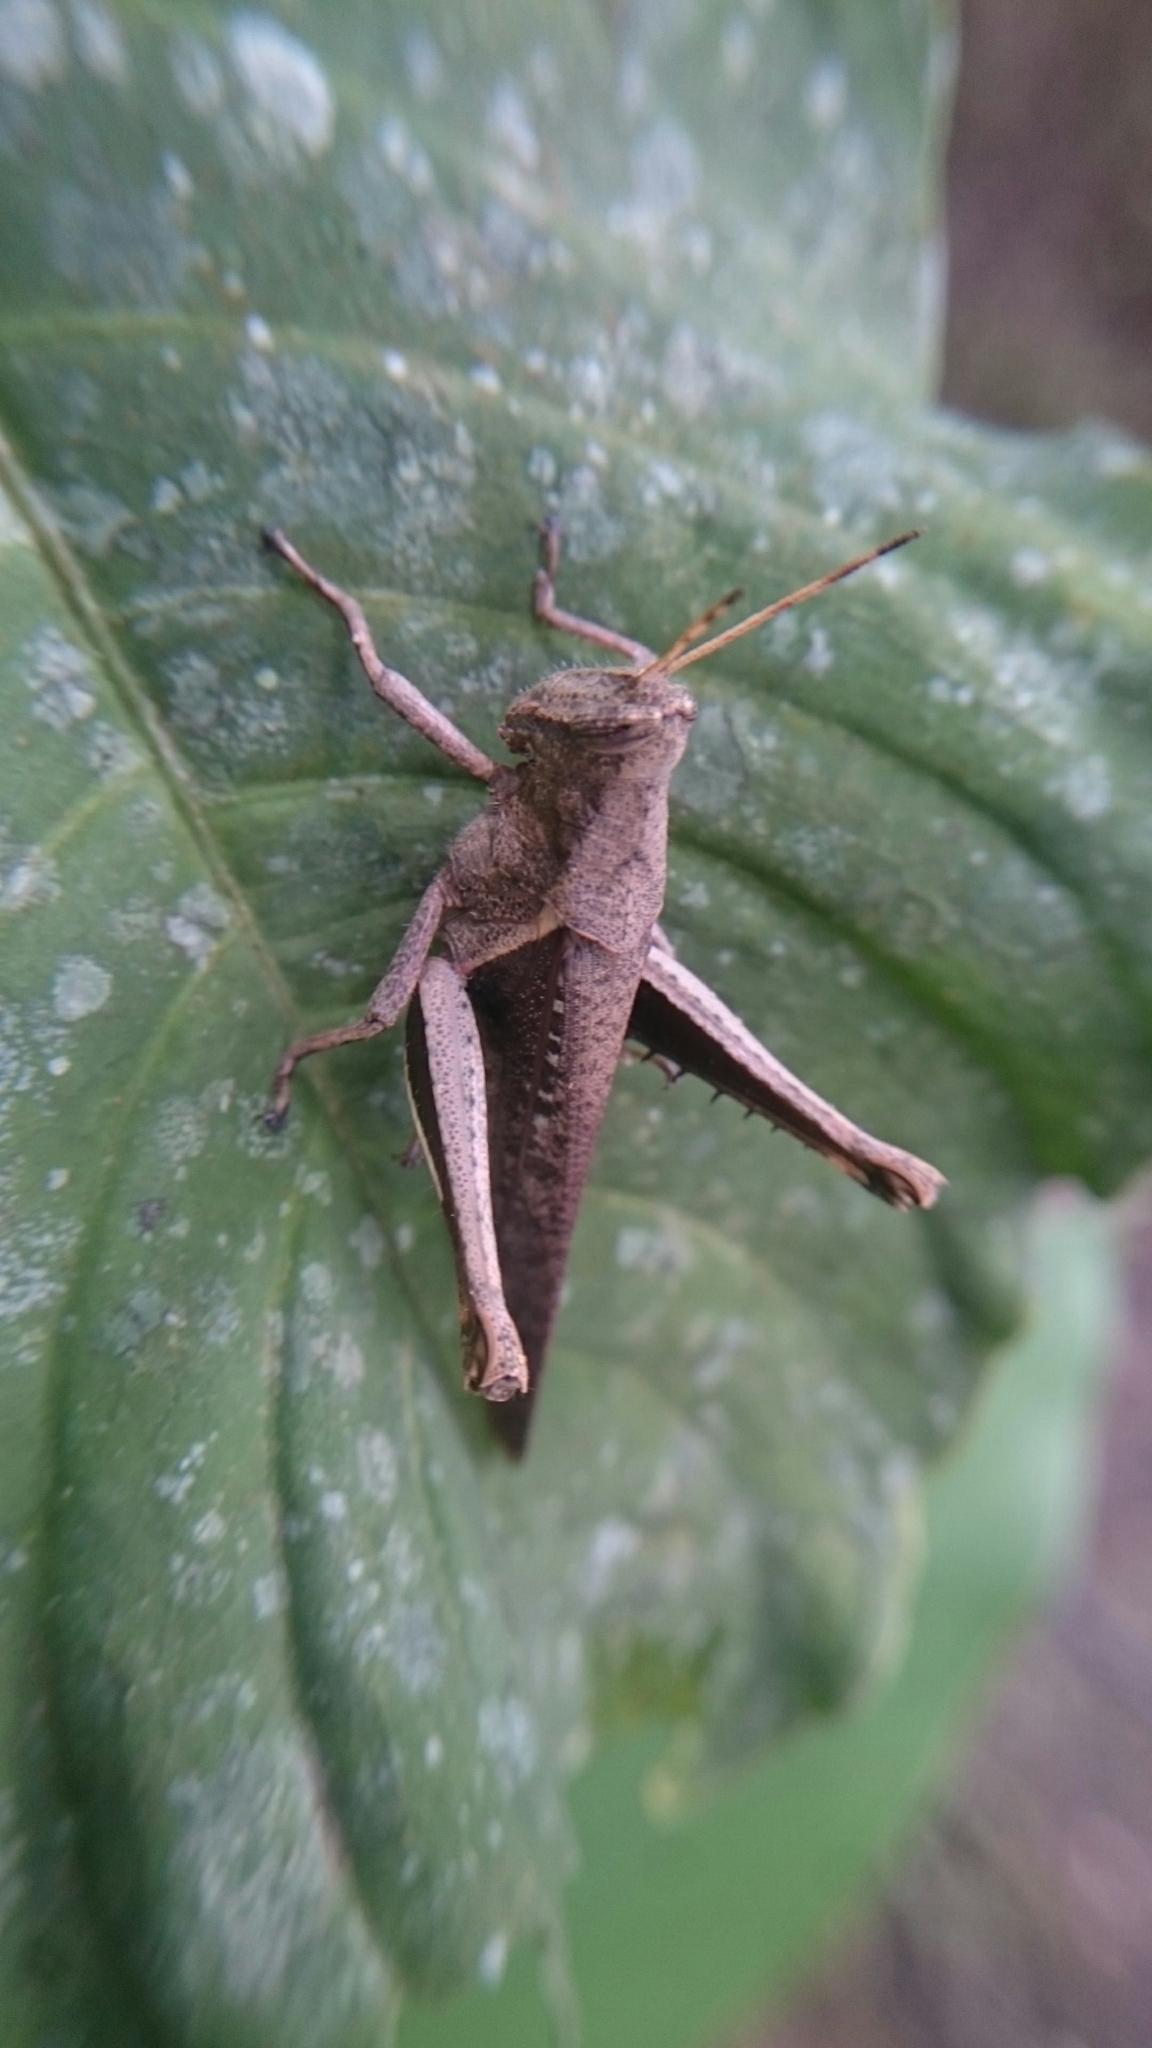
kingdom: Animalia
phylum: Arthropoda
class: Insecta
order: Orthoptera
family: Acrididae
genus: Abracris
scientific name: Abracris flavolineata
